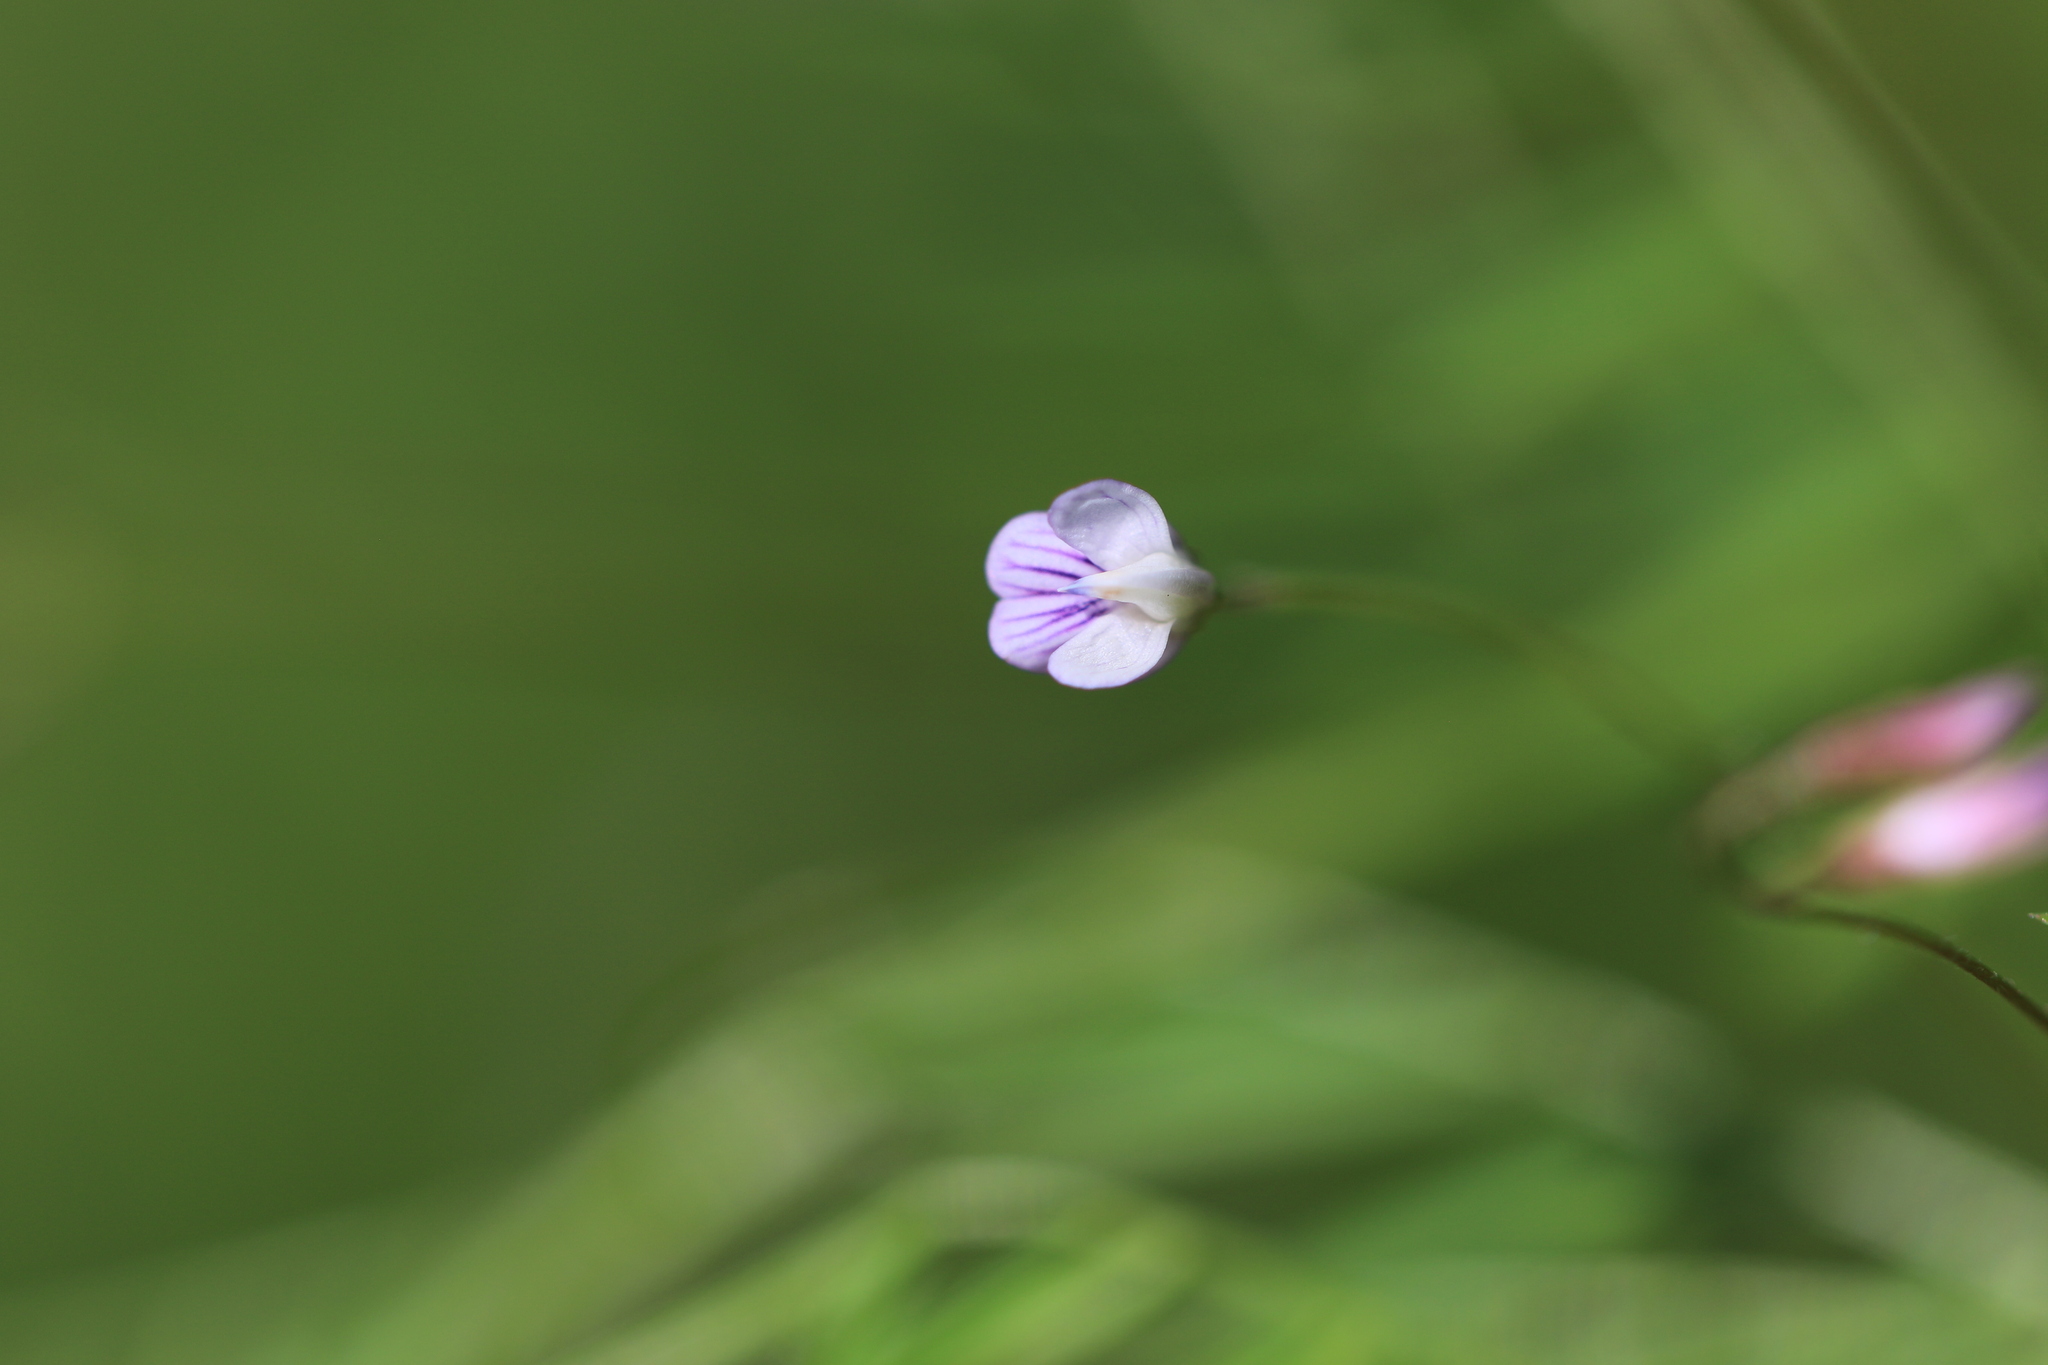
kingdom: Plantae
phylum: Tracheophyta
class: Magnoliopsida
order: Fabales
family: Fabaceae
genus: Vicia
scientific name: Vicia tetrasperma
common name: Smooth tare
